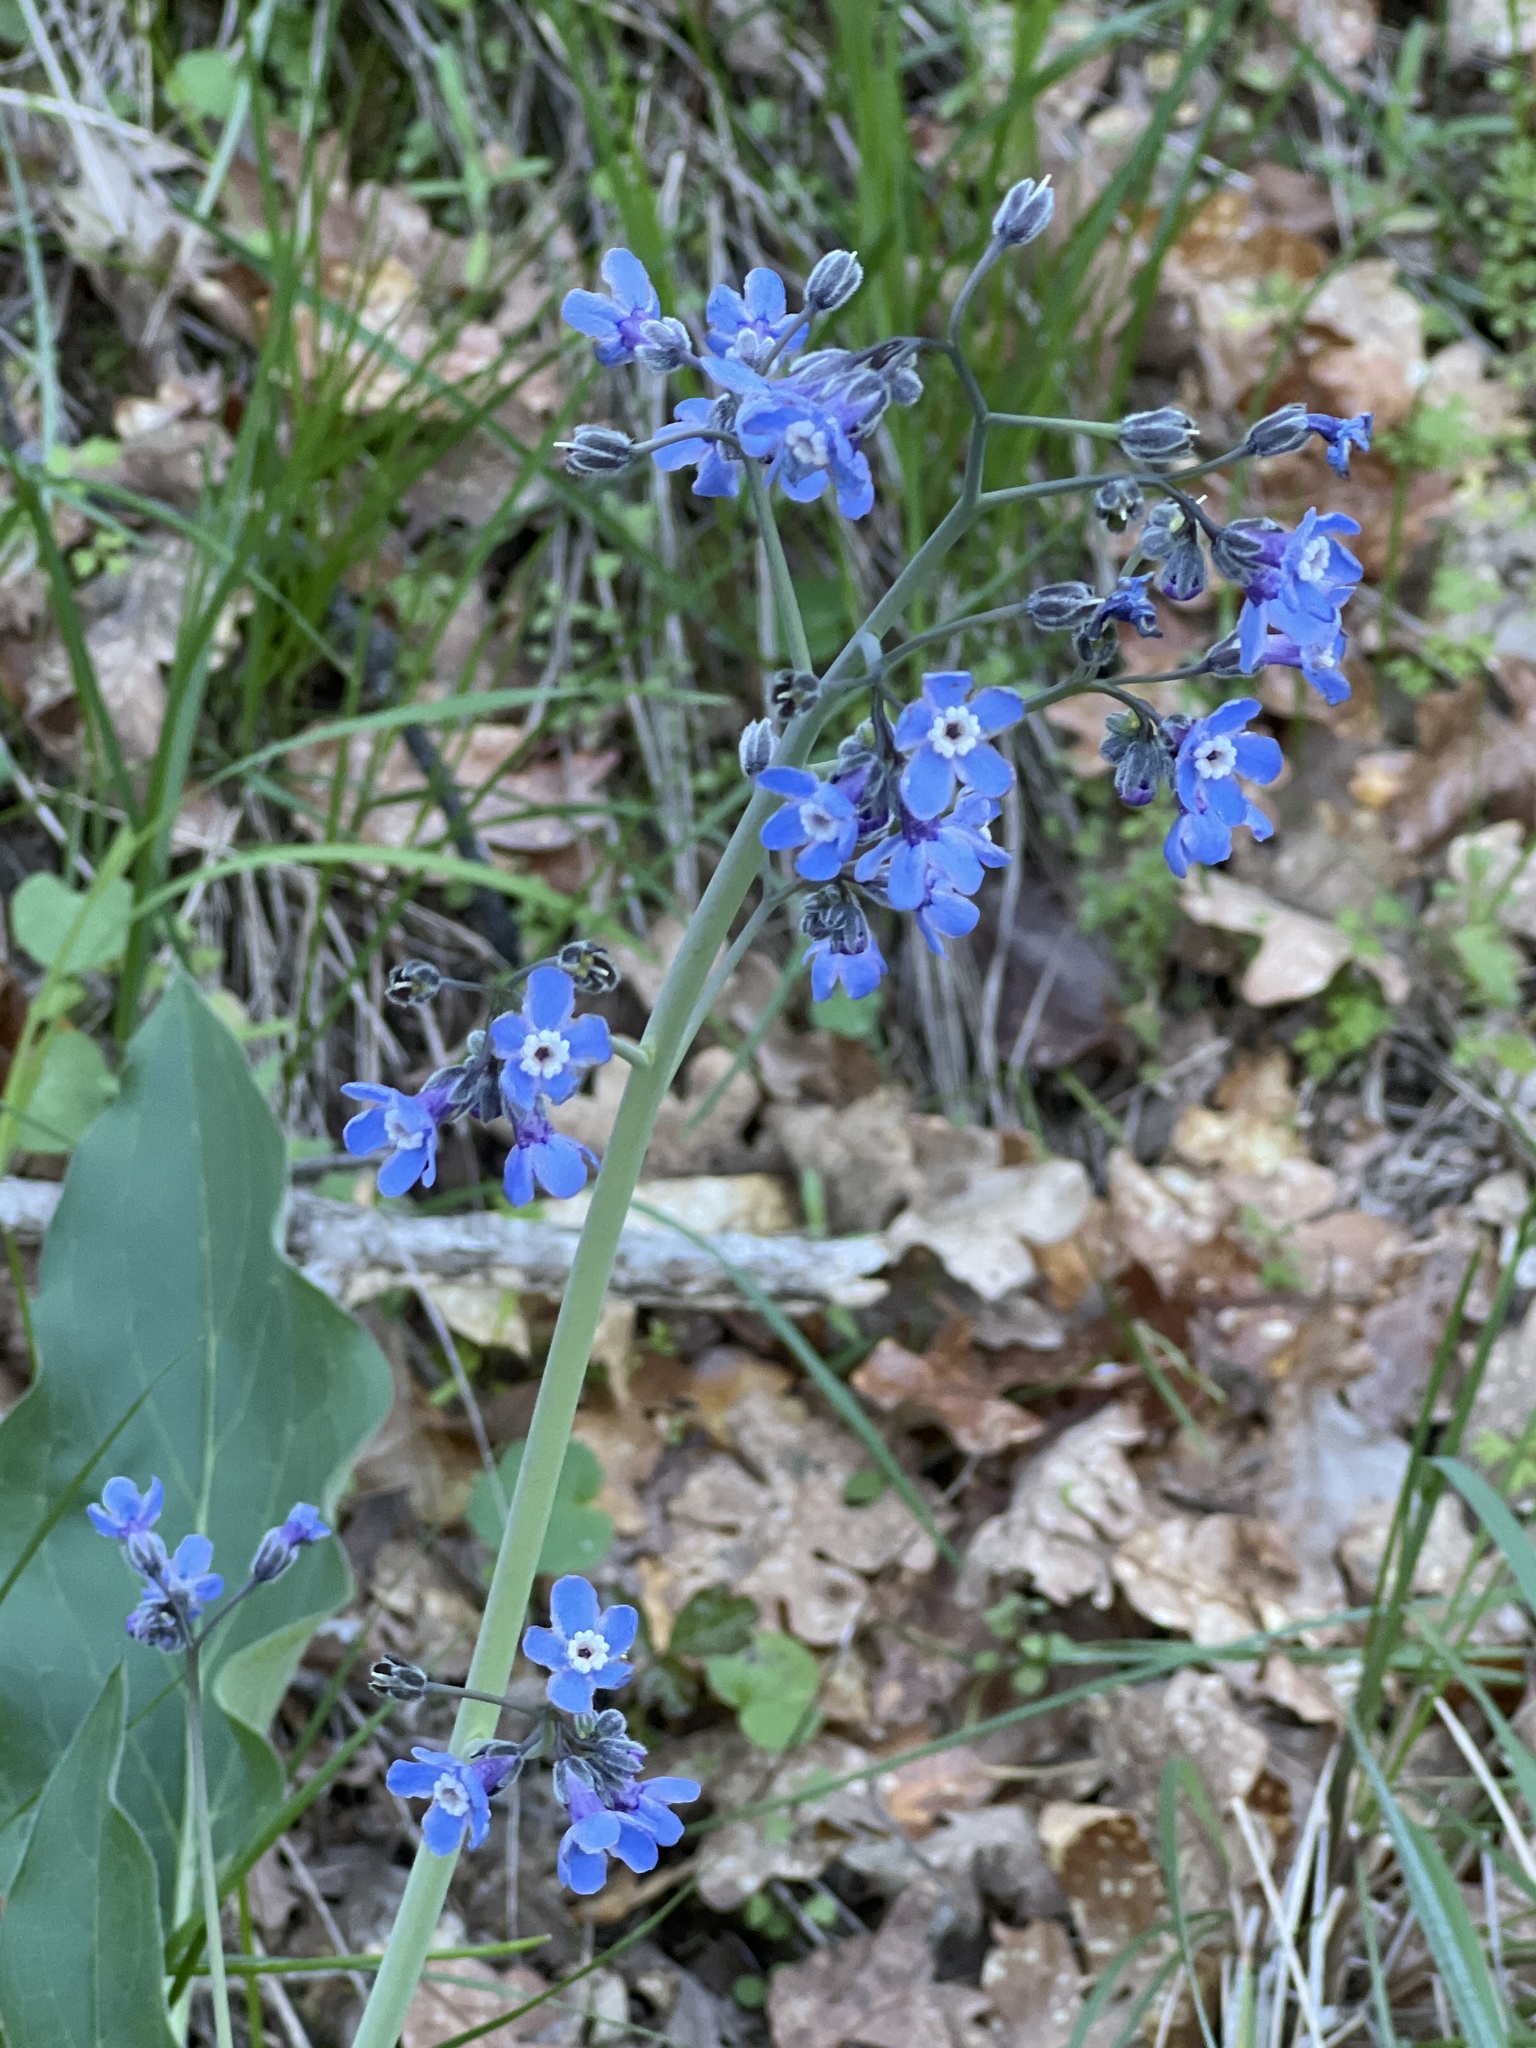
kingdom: Plantae
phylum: Tracheophyta
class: Magnoliopsida
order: Boraginales
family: Boraginaceae
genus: Adelinia
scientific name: Adelinia grande
